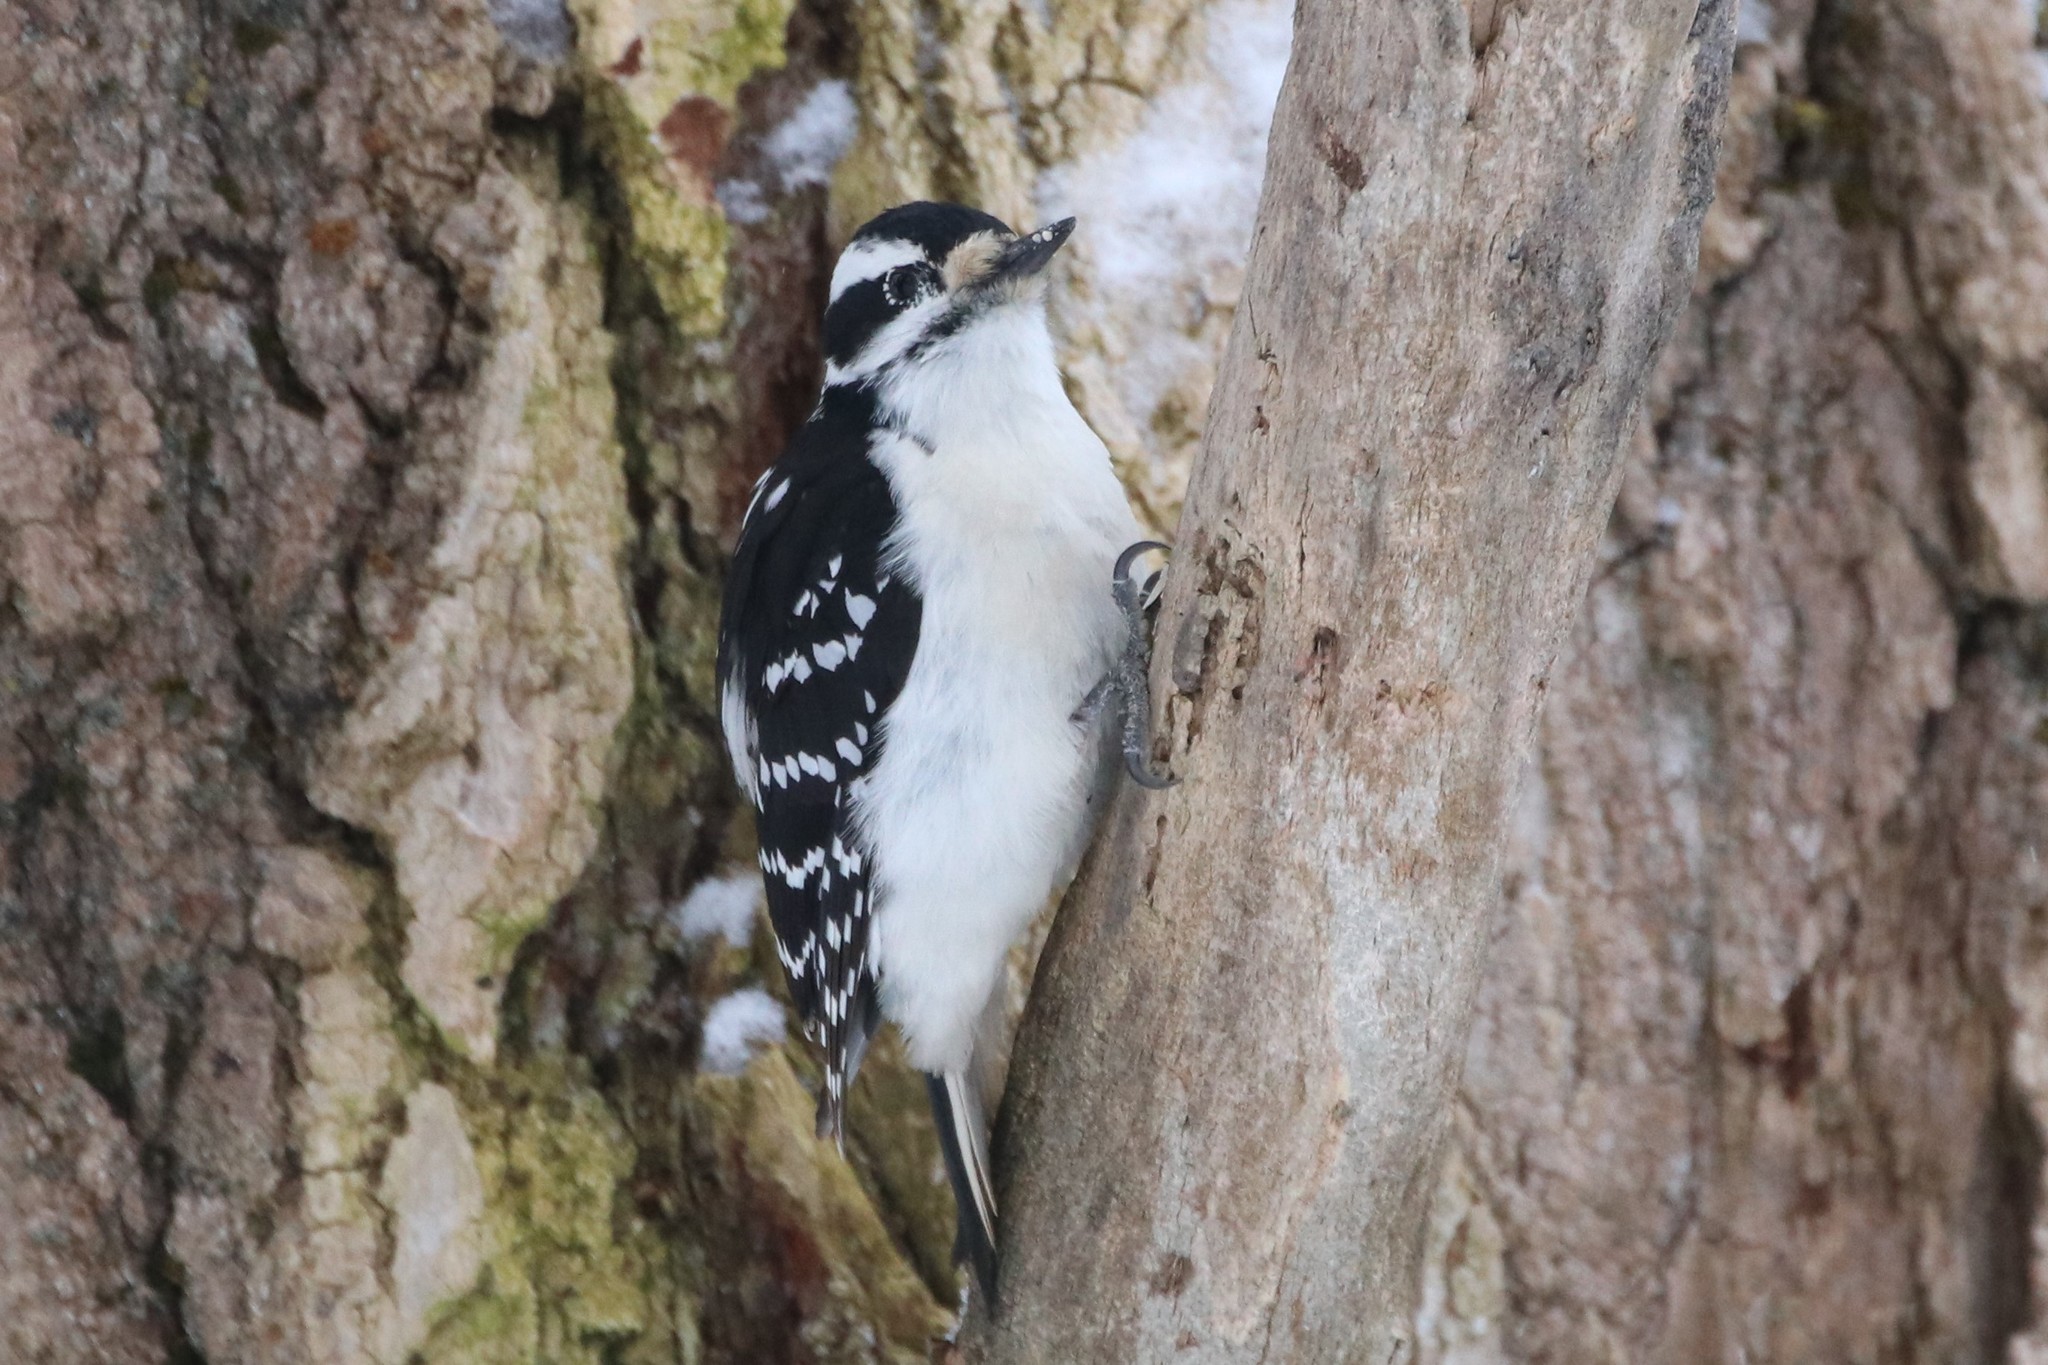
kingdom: Animalia
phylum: Chordata
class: Aves
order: Piciformes
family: Picidae
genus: Leuconotopicus
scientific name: Leuconotopicus villosus
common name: Hairy woodpecker
